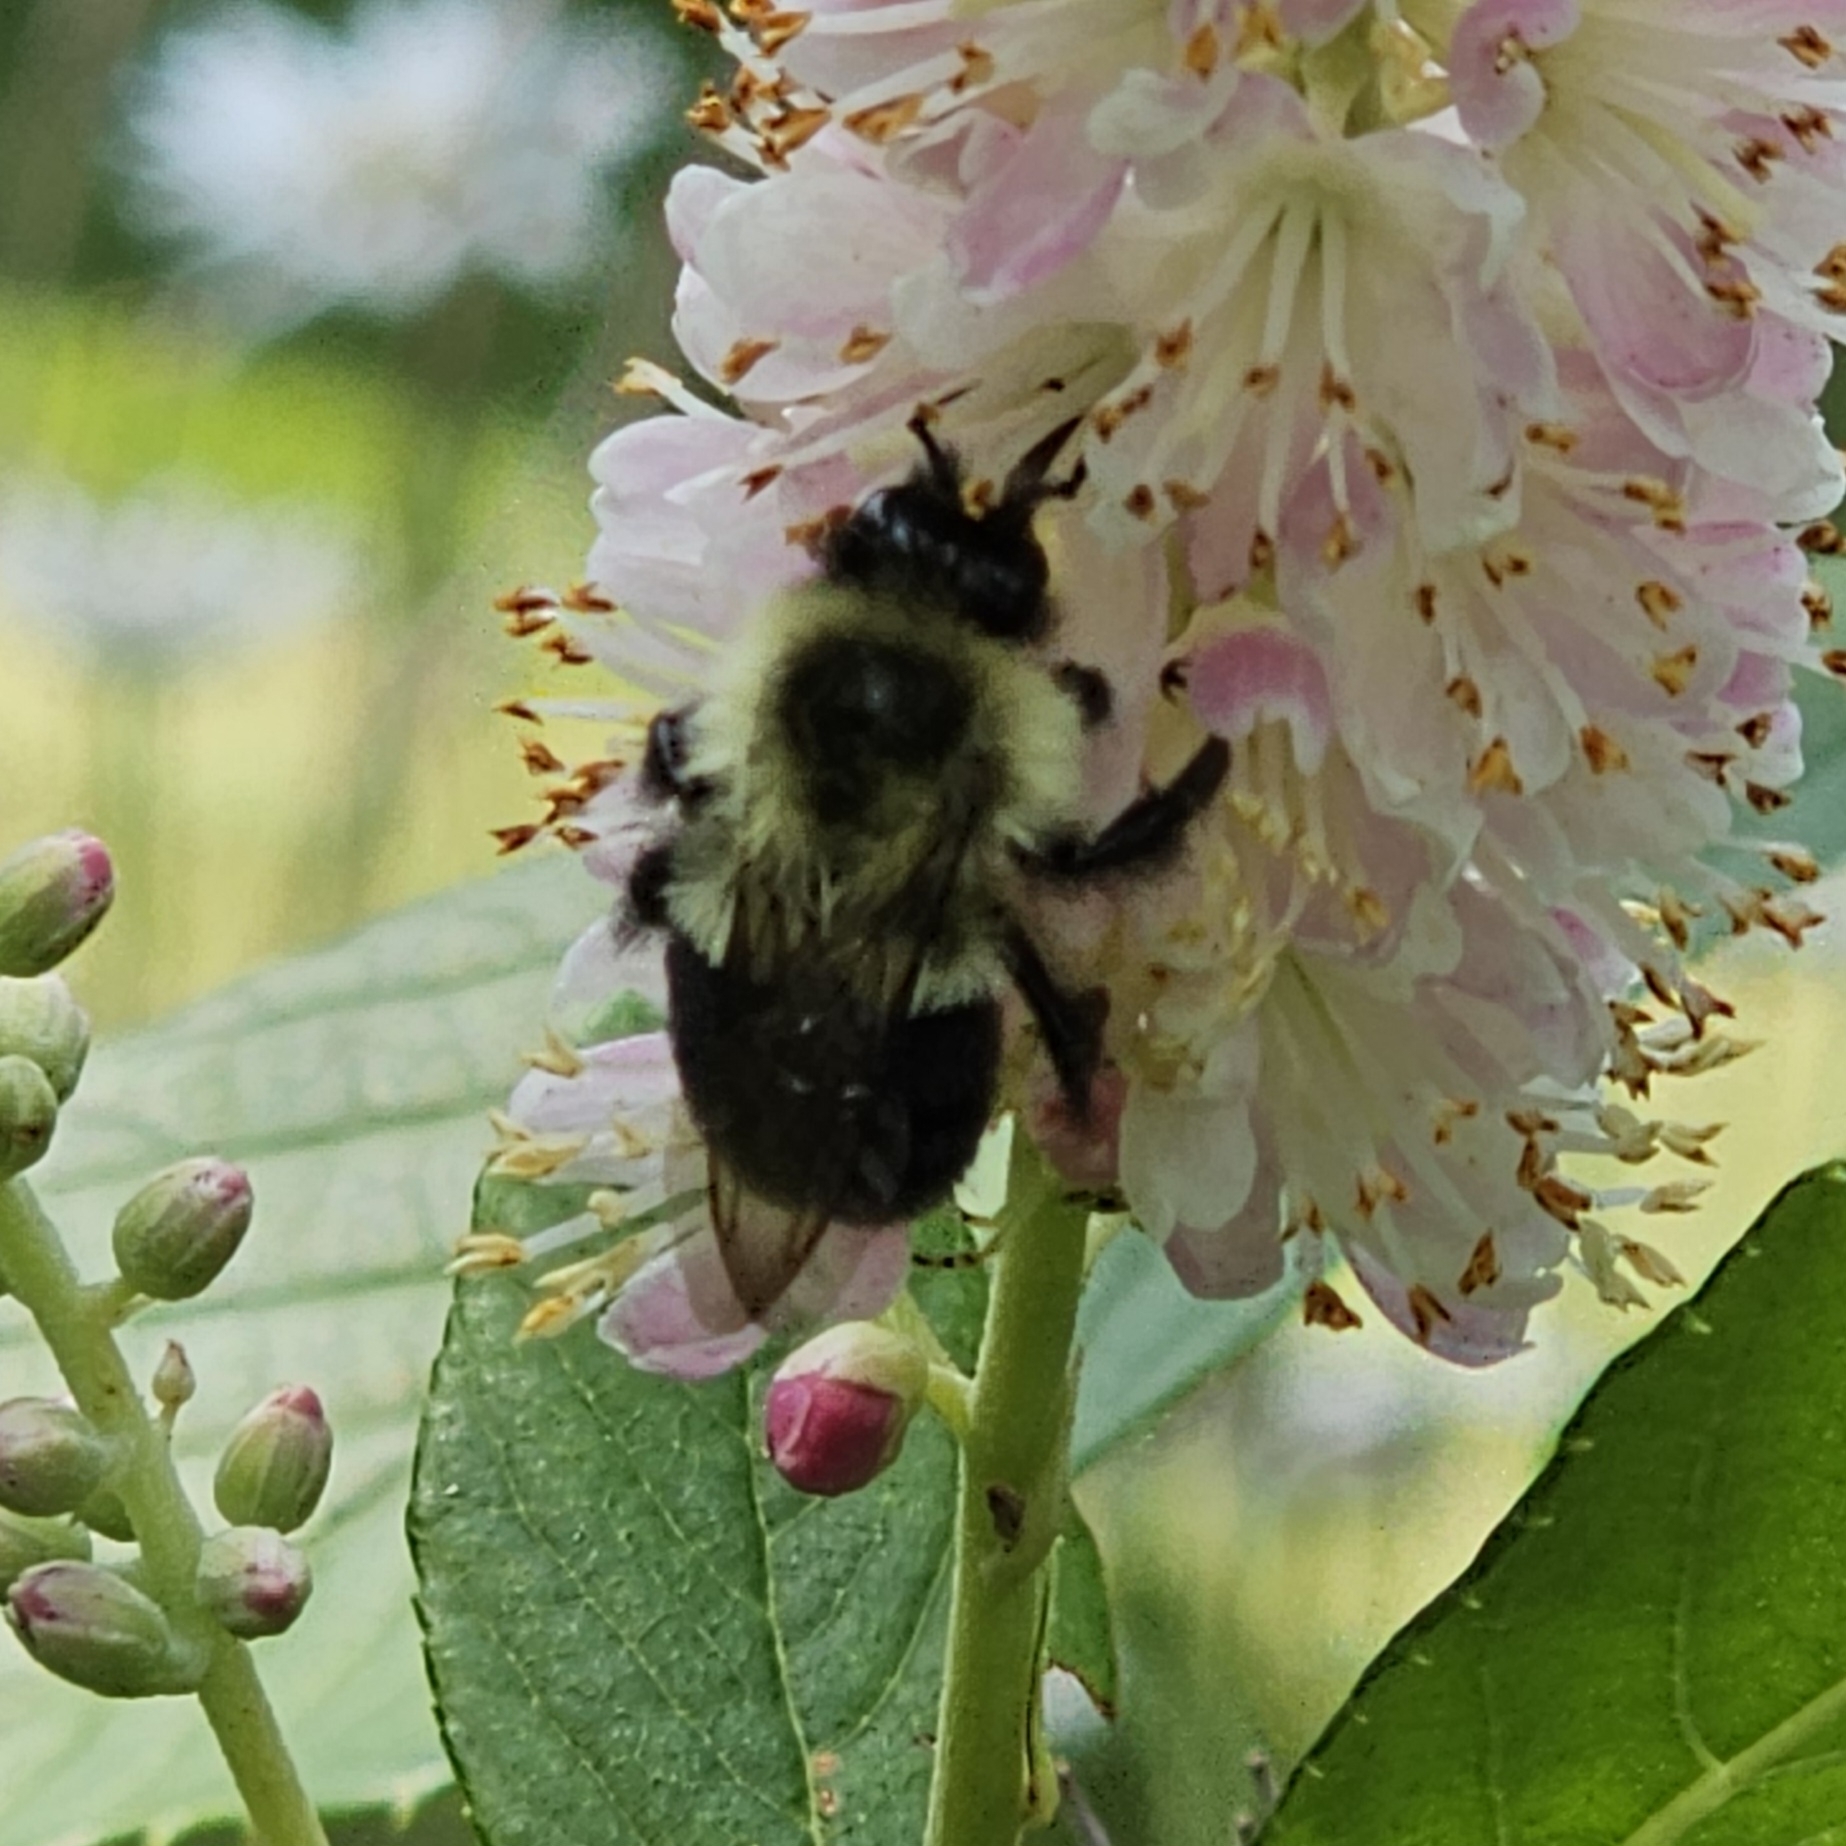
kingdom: Animalia
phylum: Arthropoda
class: Insecta
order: Hymenoptera
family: Apidae
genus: Bombus
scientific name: Bombus impatiens
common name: Common eastern bumble bee
